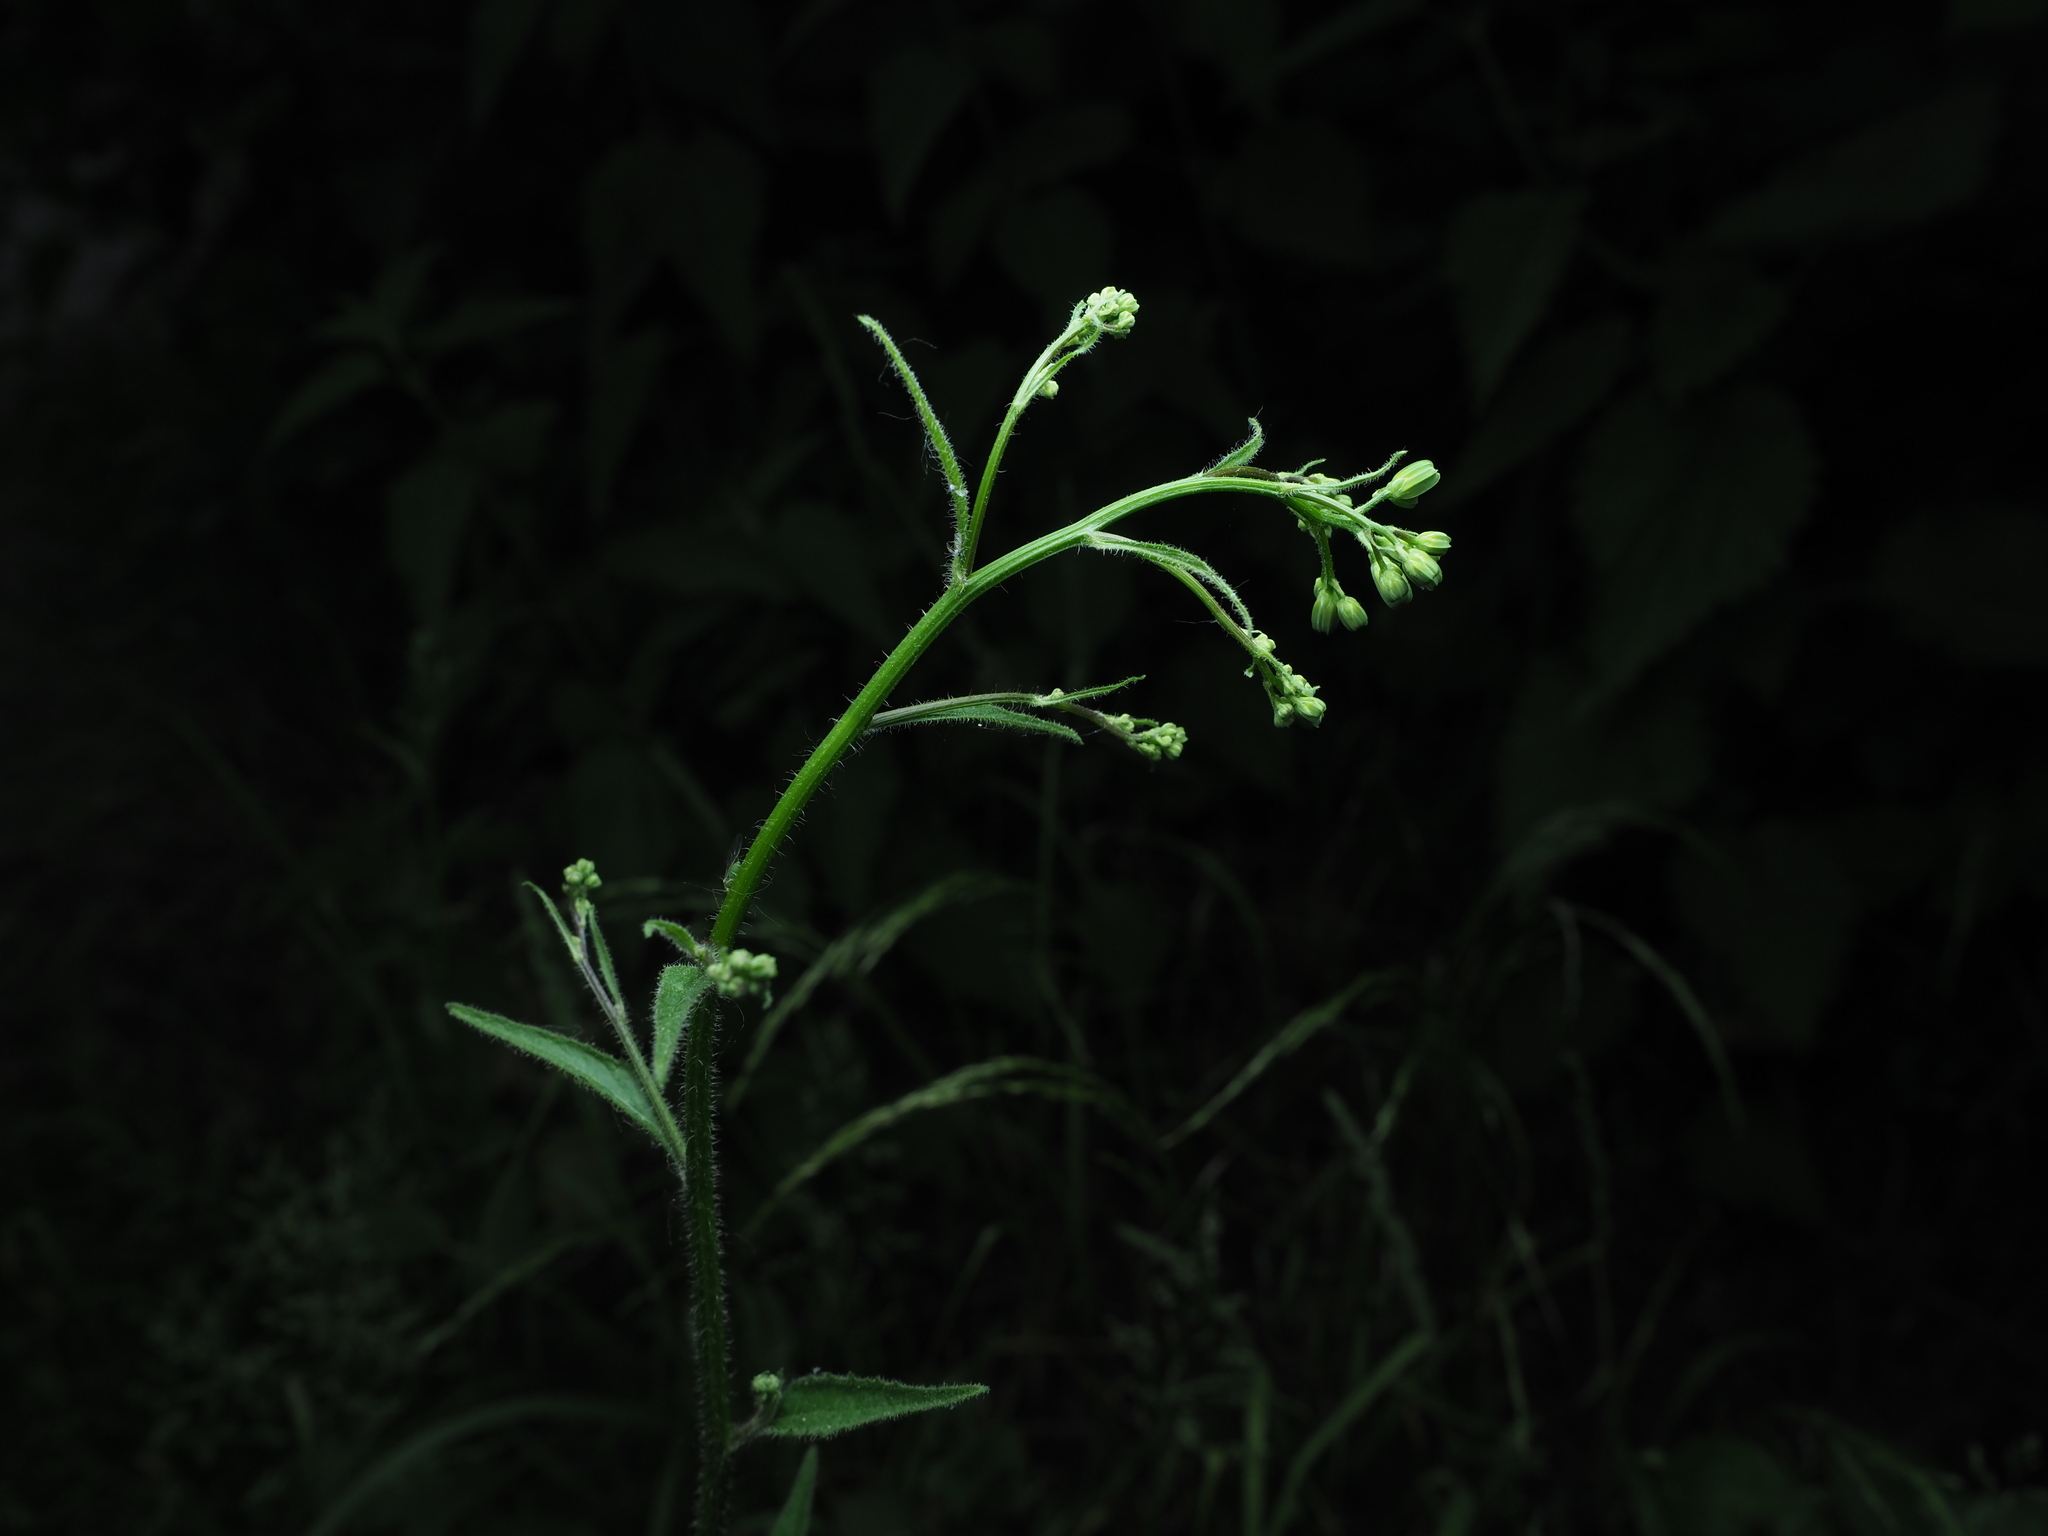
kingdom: Plantae
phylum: Tracheophyta
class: Magnoliopsida
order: Asterales
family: Asteraceae
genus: Lapsana
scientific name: Lapsana communis
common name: Nipplewort
